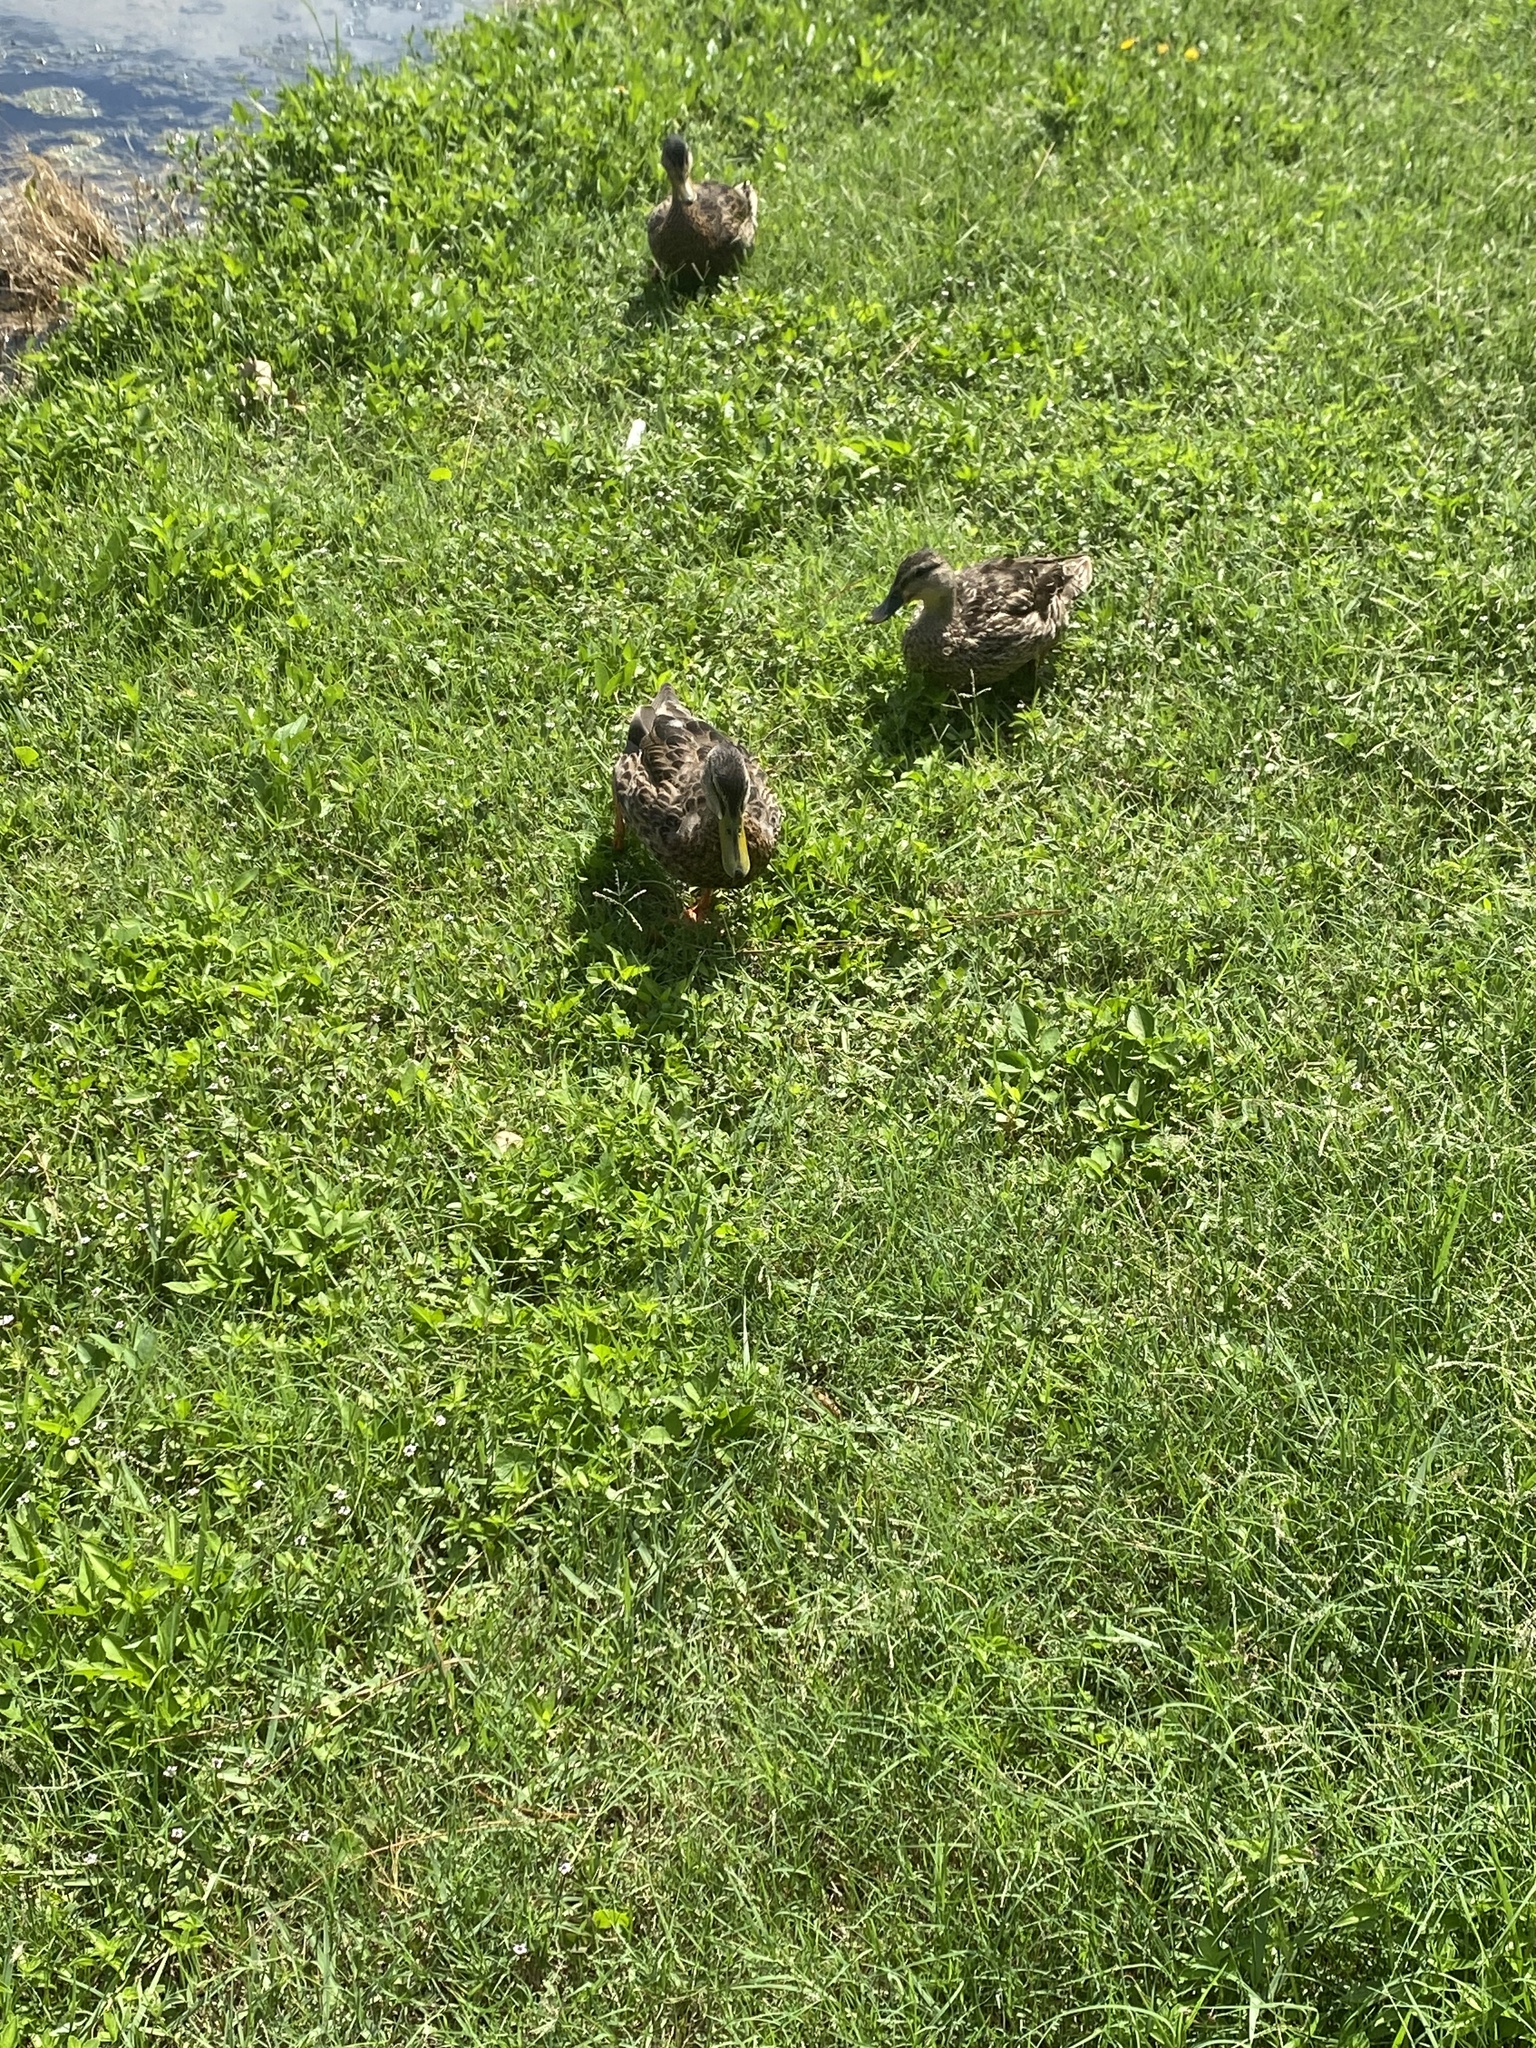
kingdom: Animalia
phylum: Chordata
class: Aves
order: Anseriformes
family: Anatidae
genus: Anas
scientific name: Anas platyrhynchos
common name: Mallard
